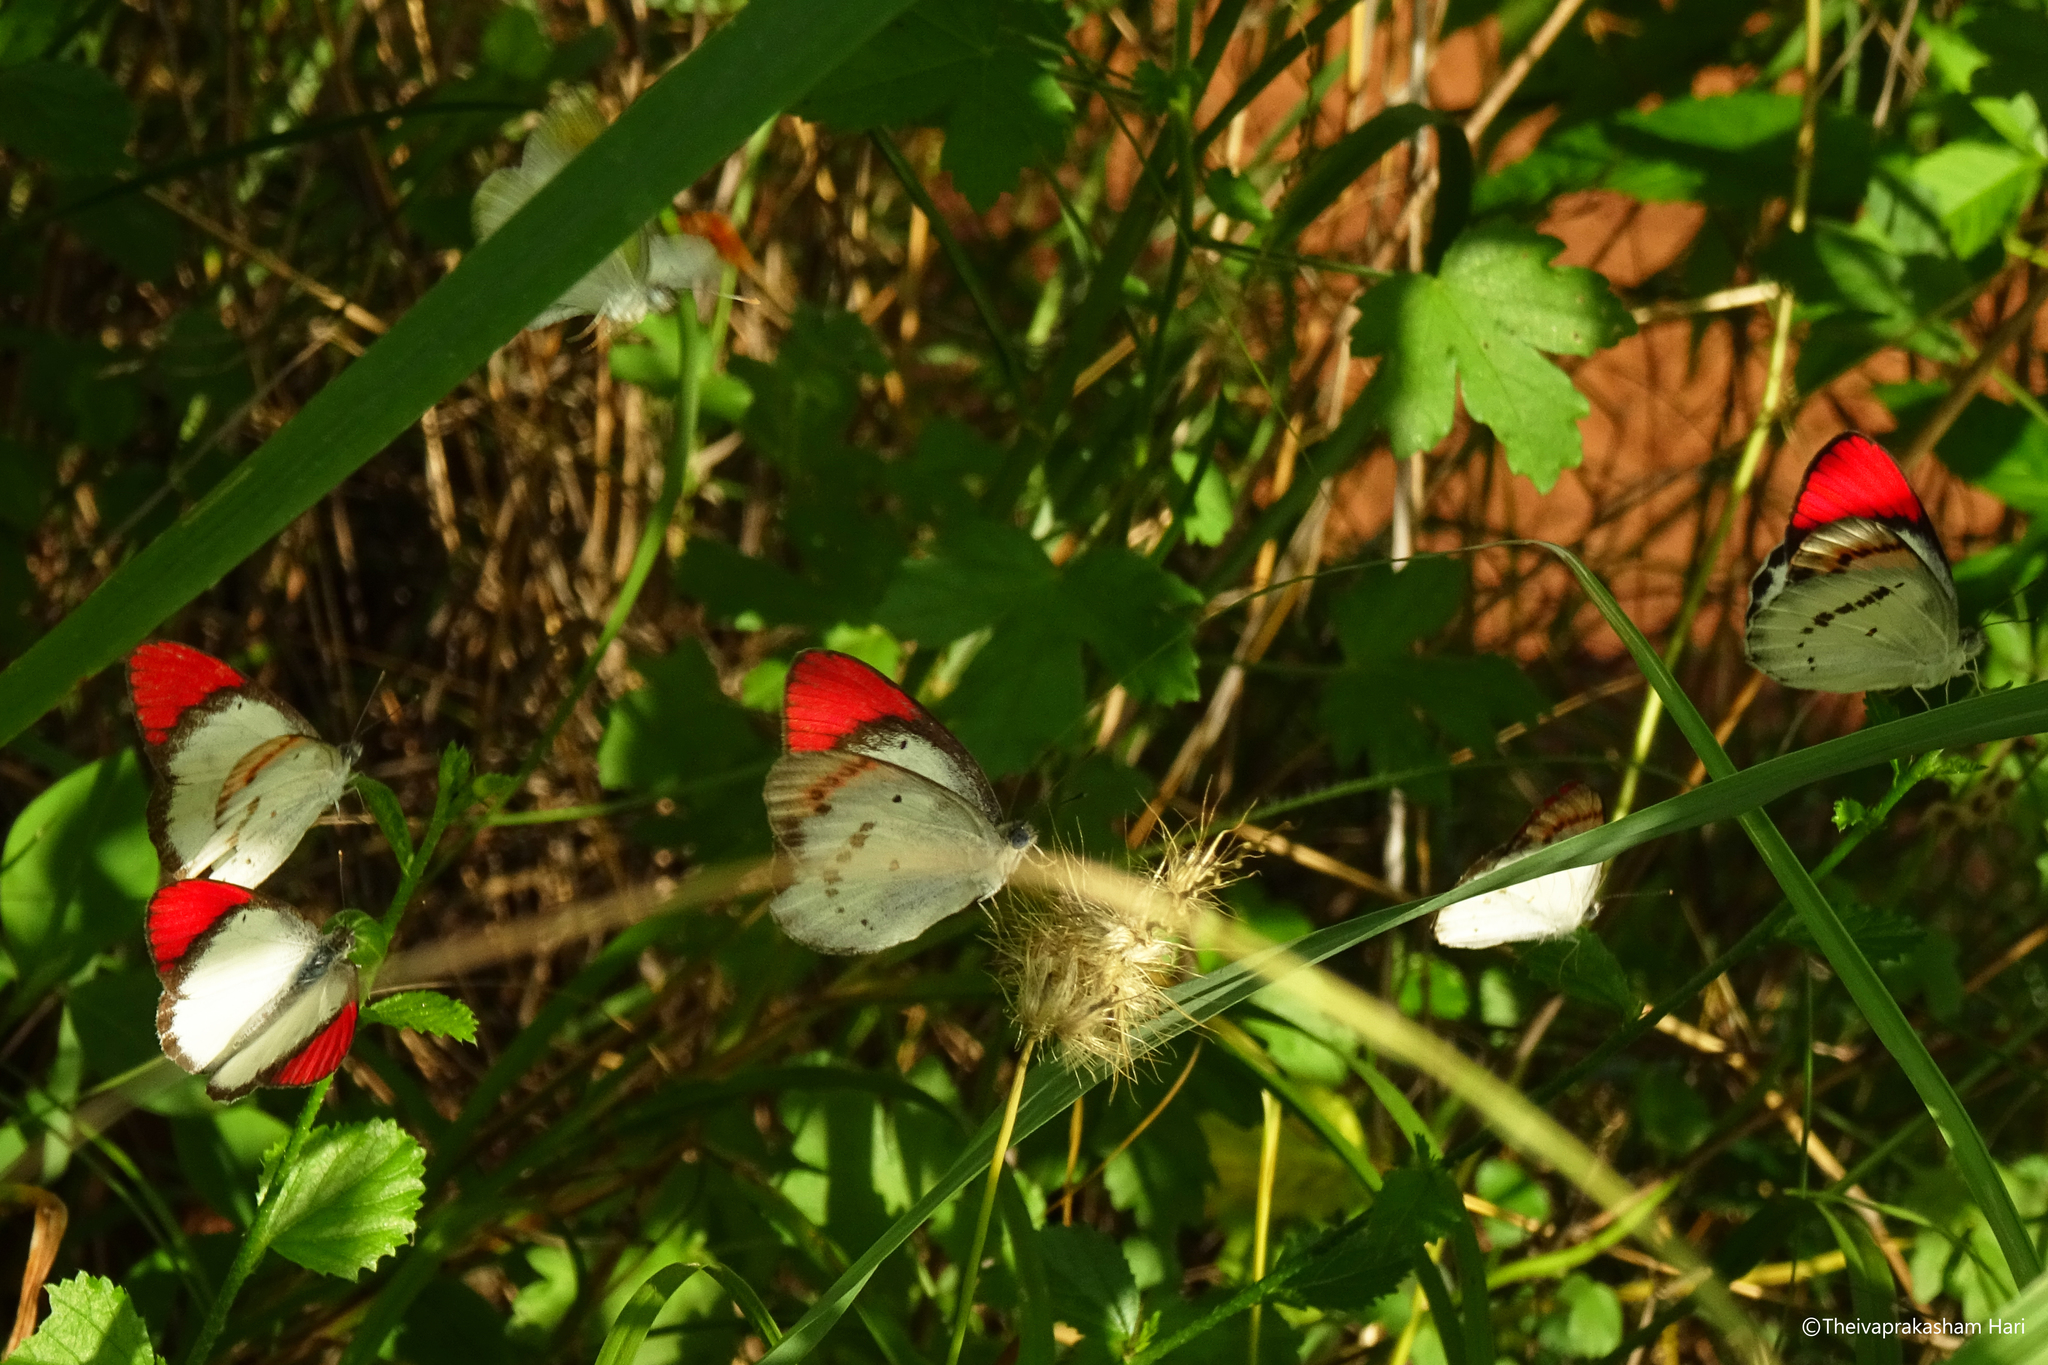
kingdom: Animalia
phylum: Arthropoda
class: Insecta
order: Lepidoptera
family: Pieridae
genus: Colotis
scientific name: Colotis danae
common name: Crimson tip
